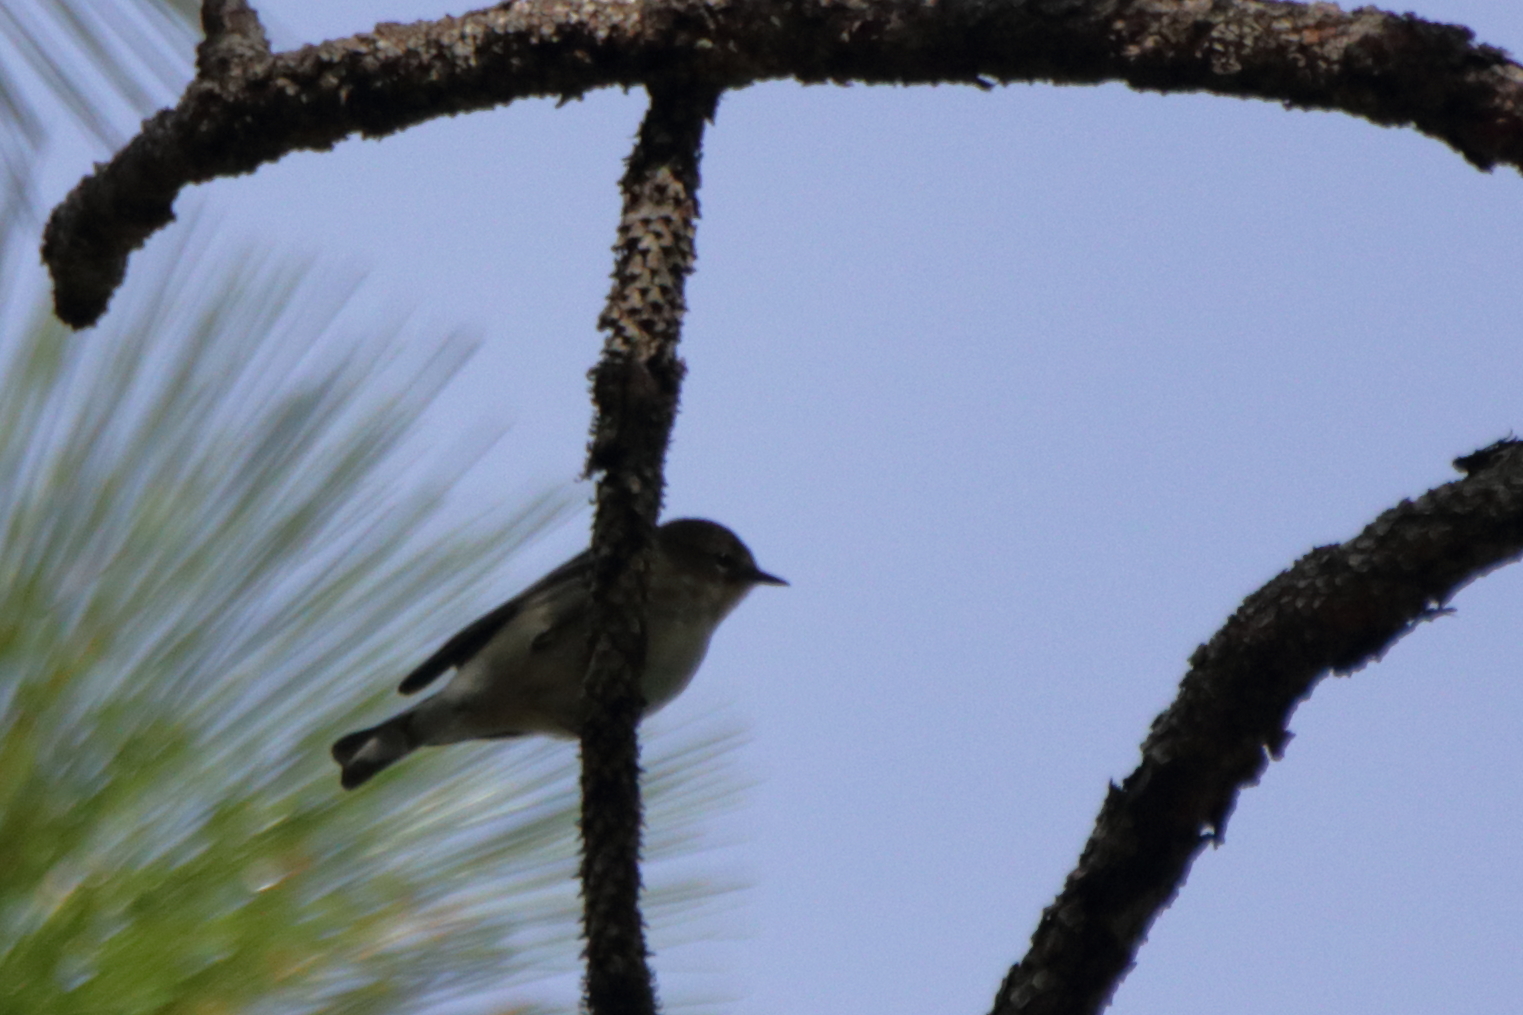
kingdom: Animalia
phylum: Chordata
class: Aves
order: Passeriformes
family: Parulidae
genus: Setophaga
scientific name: Setophaga coronata
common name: Myrtle warbler
